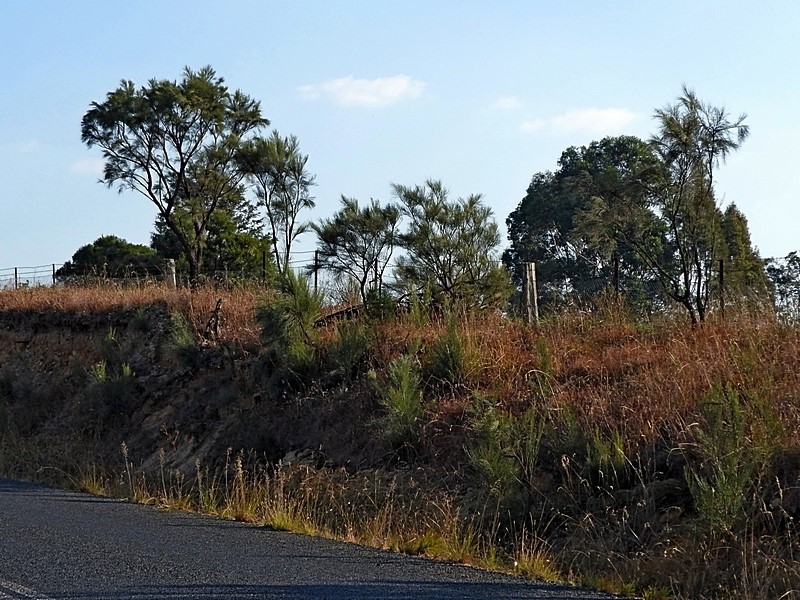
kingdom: Plantae
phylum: Tracheophyta
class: Magnoliopsida
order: Fabales
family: Fabaceae
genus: Jacksonia
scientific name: Jacksonia scoparia
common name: Dogwood
